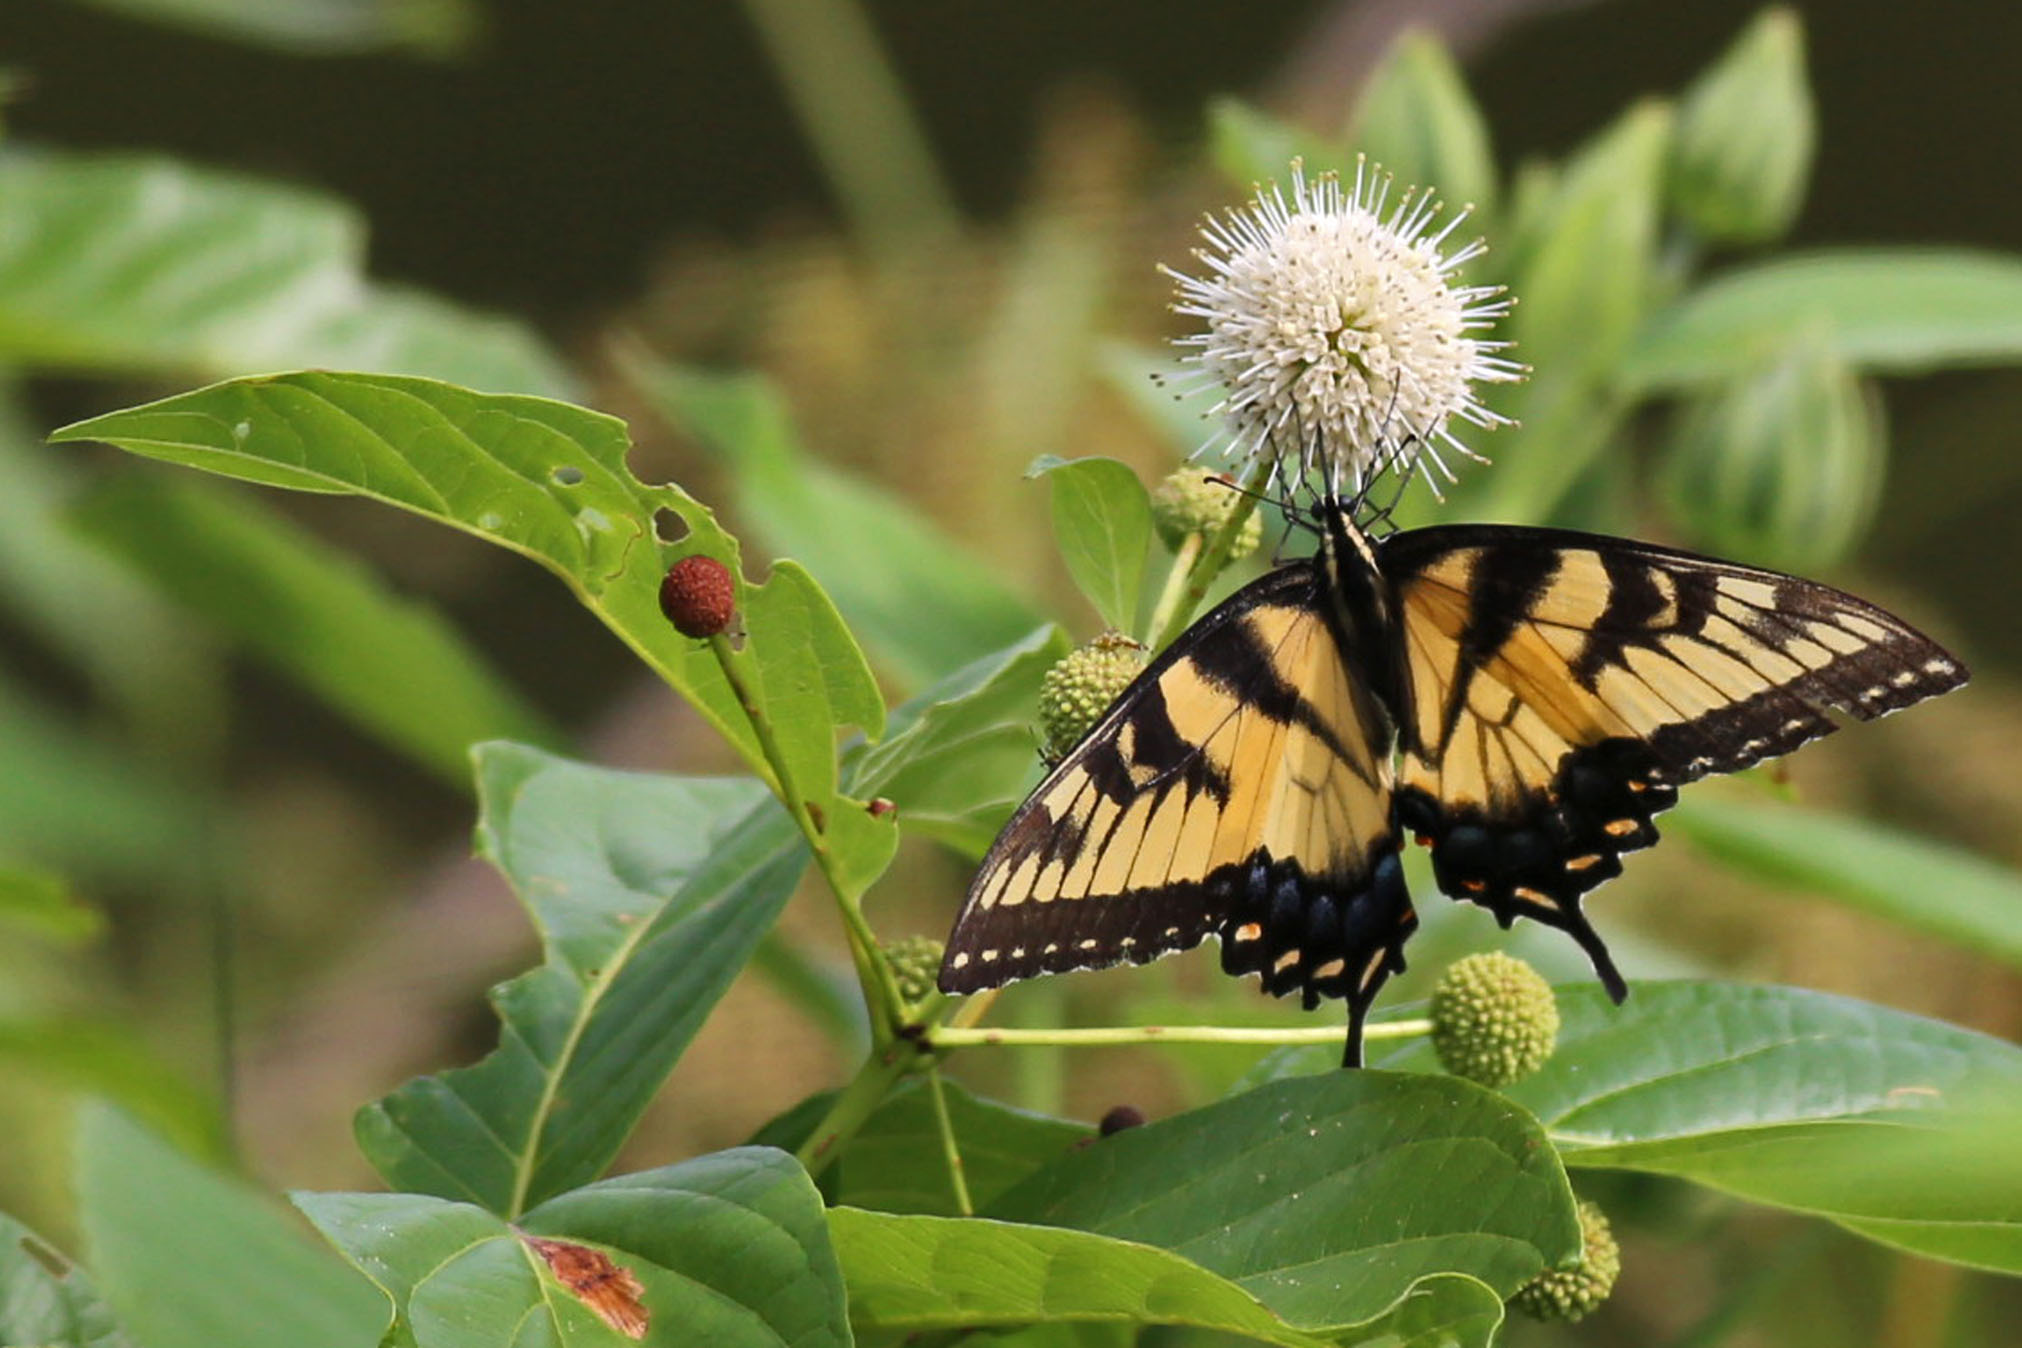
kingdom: Plantae
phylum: Tracheophyta
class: Magnoliopsida
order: Gentianales
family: Rubiaceae
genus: Cephalanthus
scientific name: Cephalanthus occidentalis
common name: Button-willow
